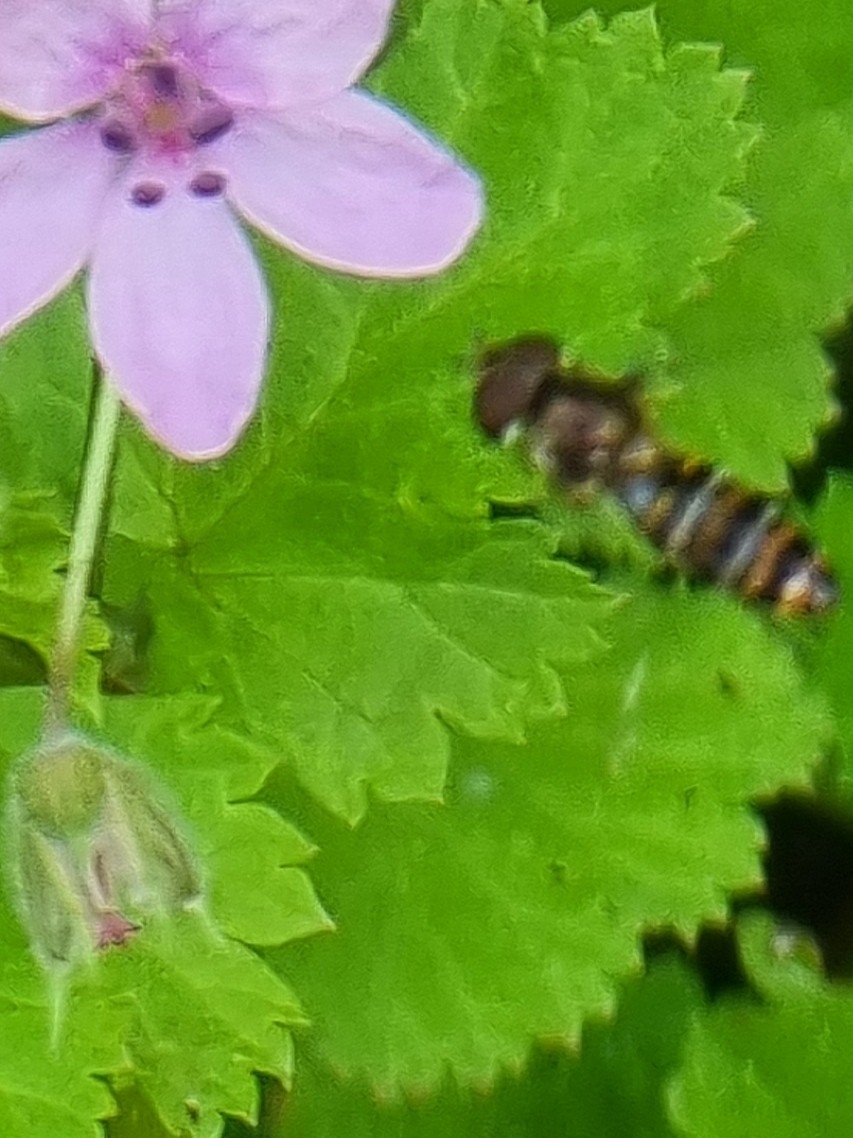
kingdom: Animalia
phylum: Arthropoda
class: Insecta
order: Diptera
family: Syrphidae
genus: Episyrphus
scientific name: Episyrphus balteatus
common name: Marmalade hoverfly
